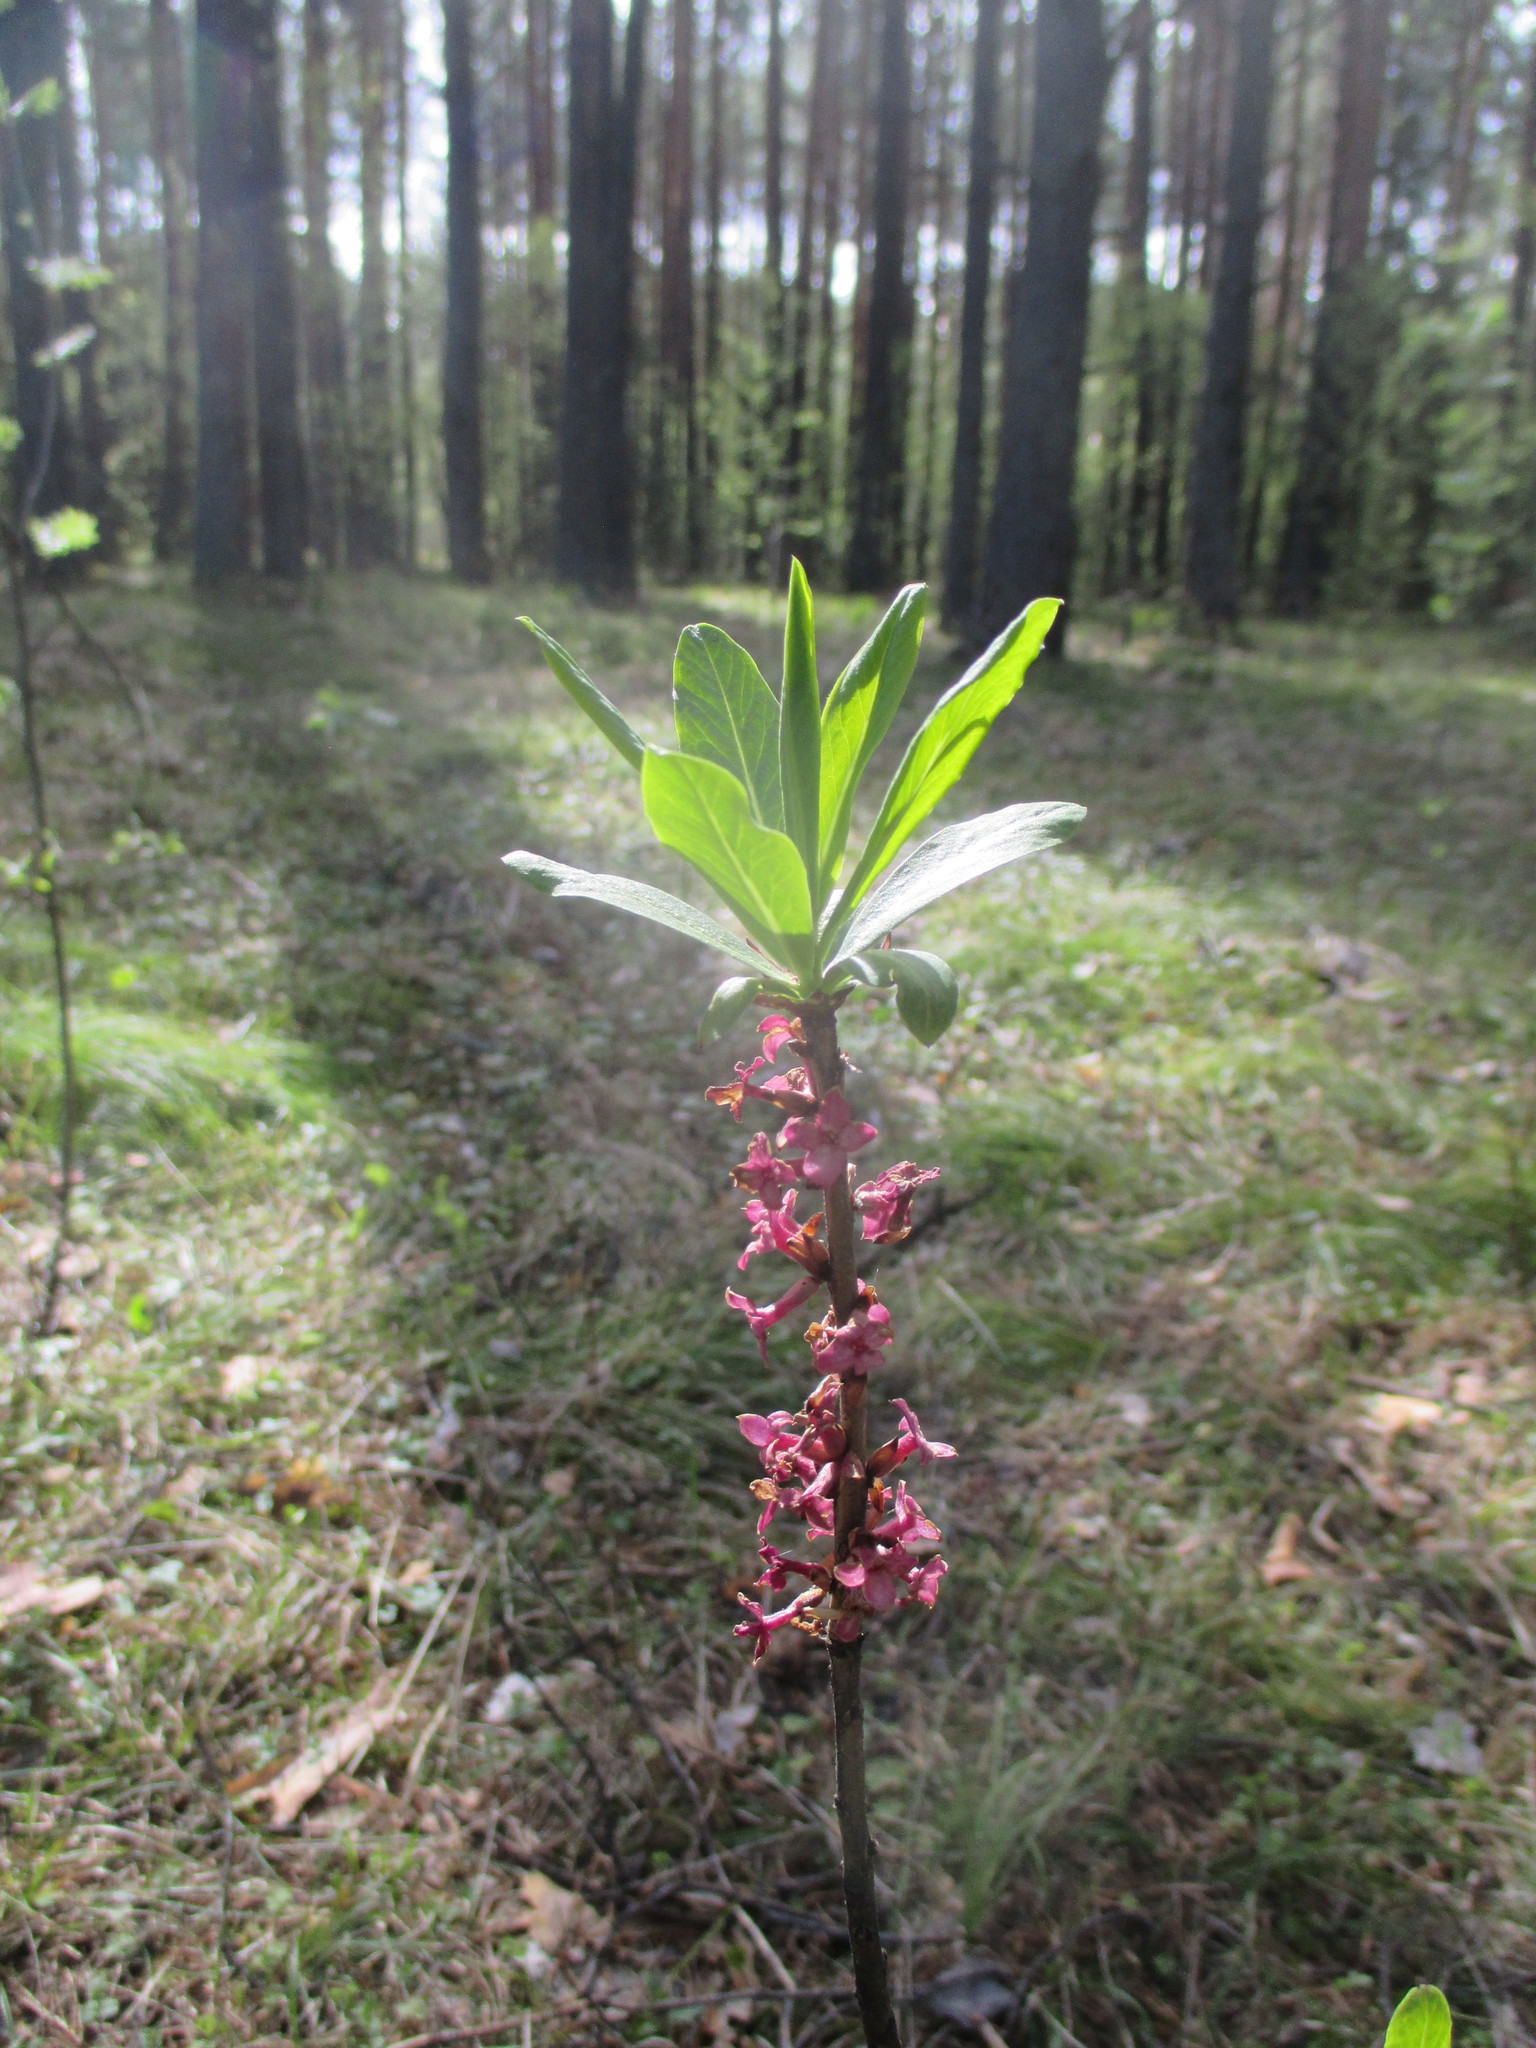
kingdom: Plantae
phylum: Tracheophyta
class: Magnoliopsida
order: Malvales
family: Thymelaeaceae
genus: Daphne
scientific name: Daphne mezereum
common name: Mezereon
